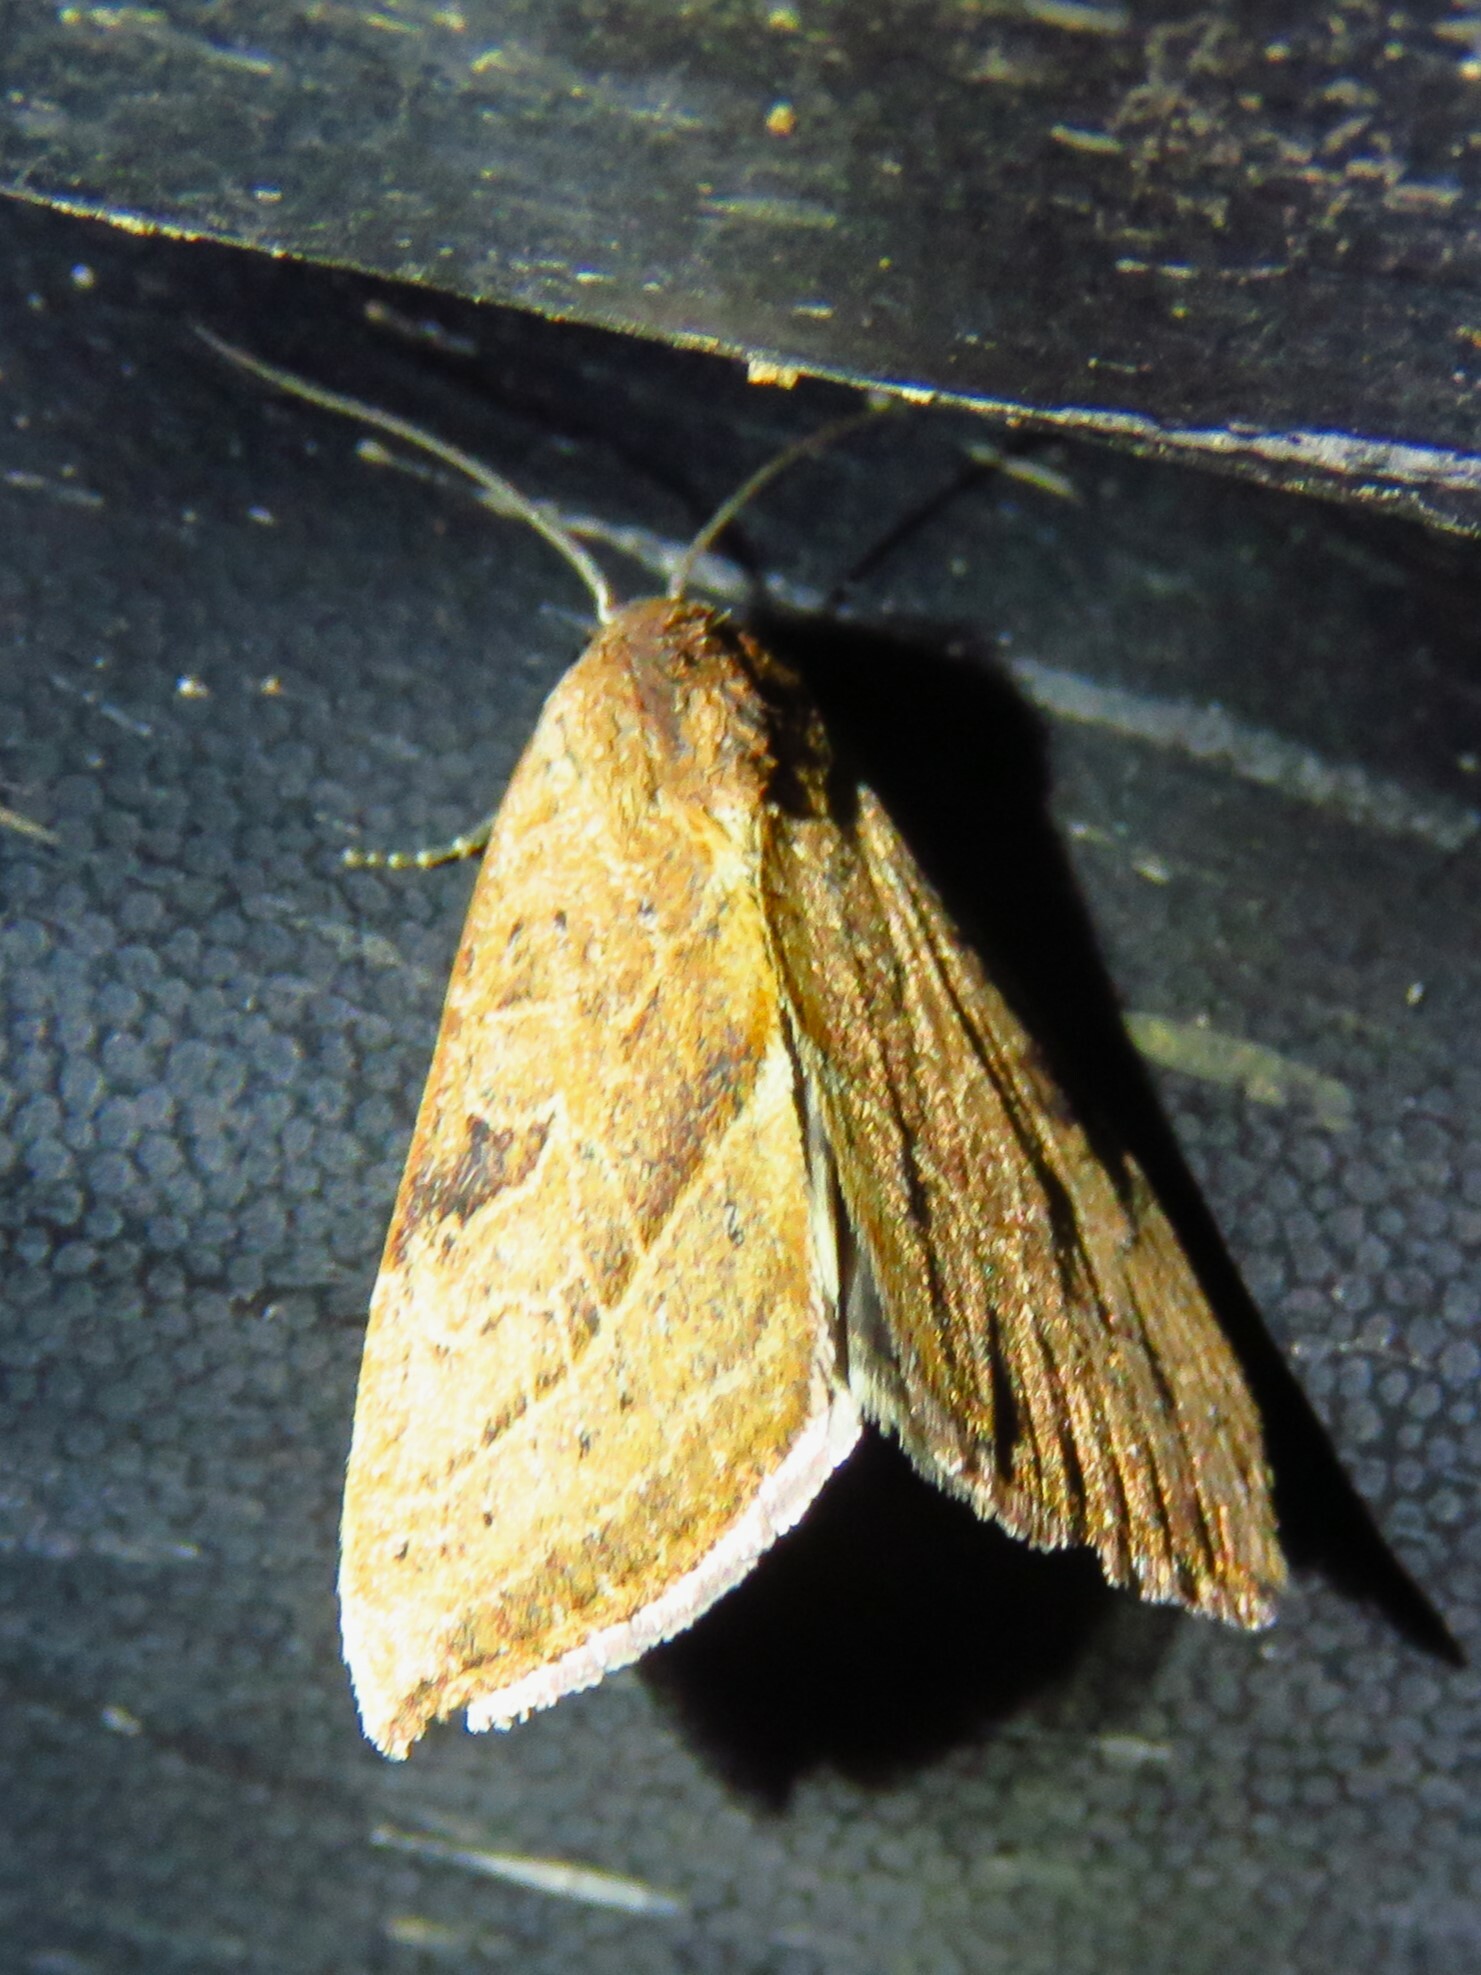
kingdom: Animalia
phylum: Arthropoda
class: Insecta
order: Lepidoptera
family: Noctuidae
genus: Galgula
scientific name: Galgula partita
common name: Wedgeling
